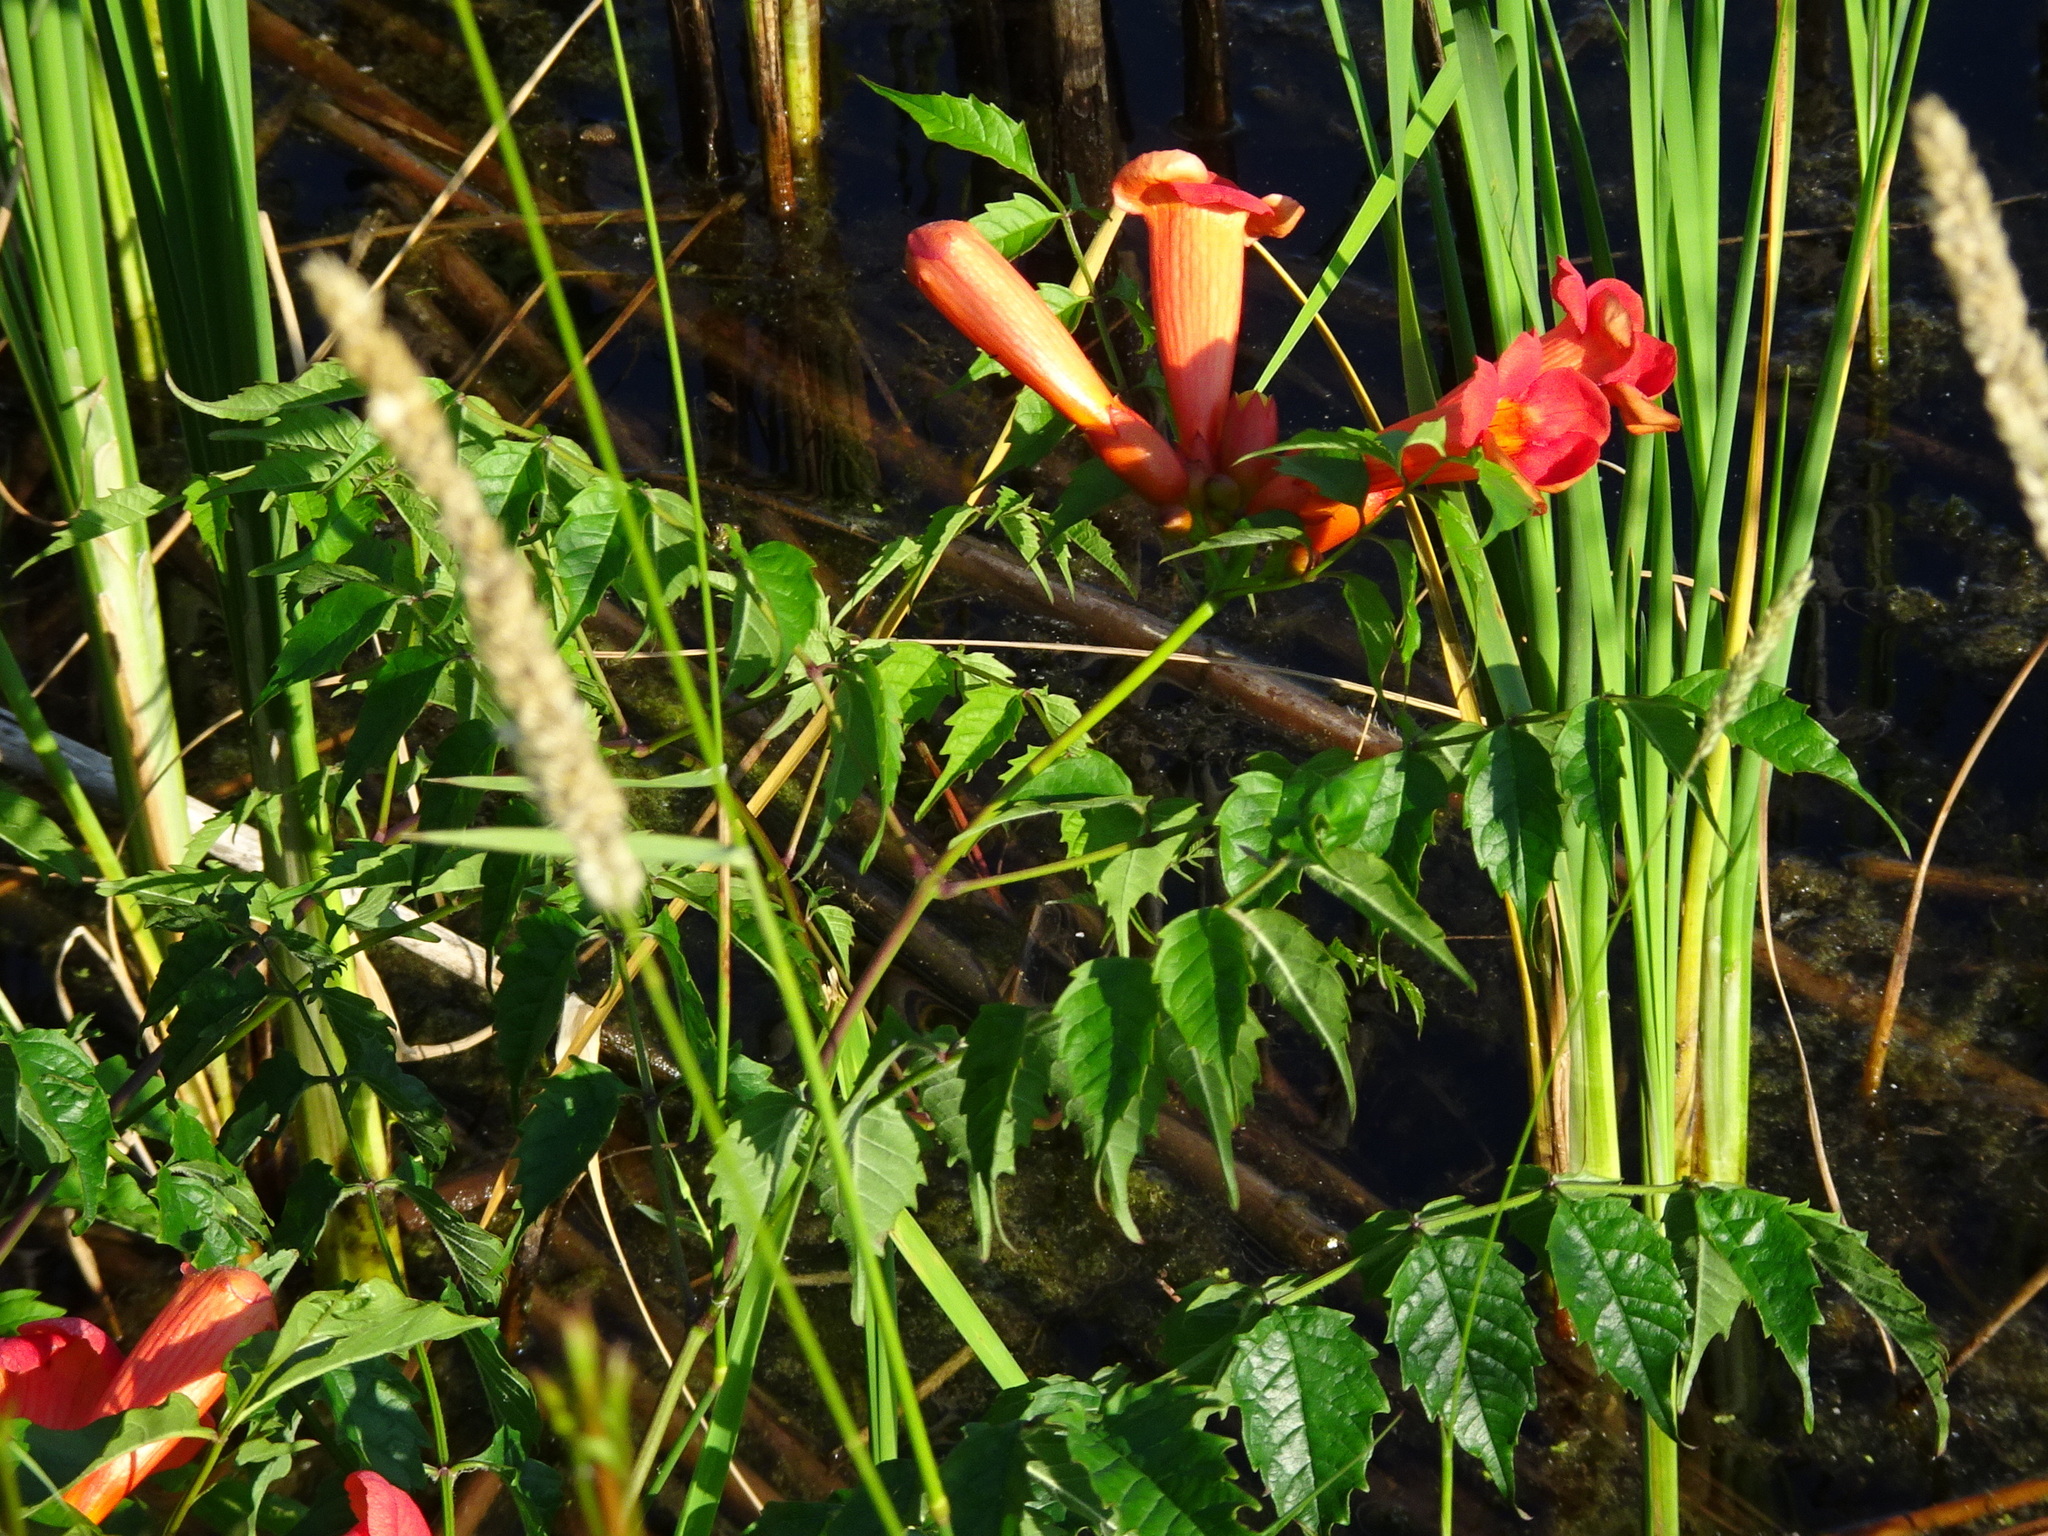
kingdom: Plantae
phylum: Tracheophyta
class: Magnoliopsida
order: Lamiales
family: Bignoniaceae
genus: Campsis
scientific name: Campsis radicans
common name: Trumpet-creeper
